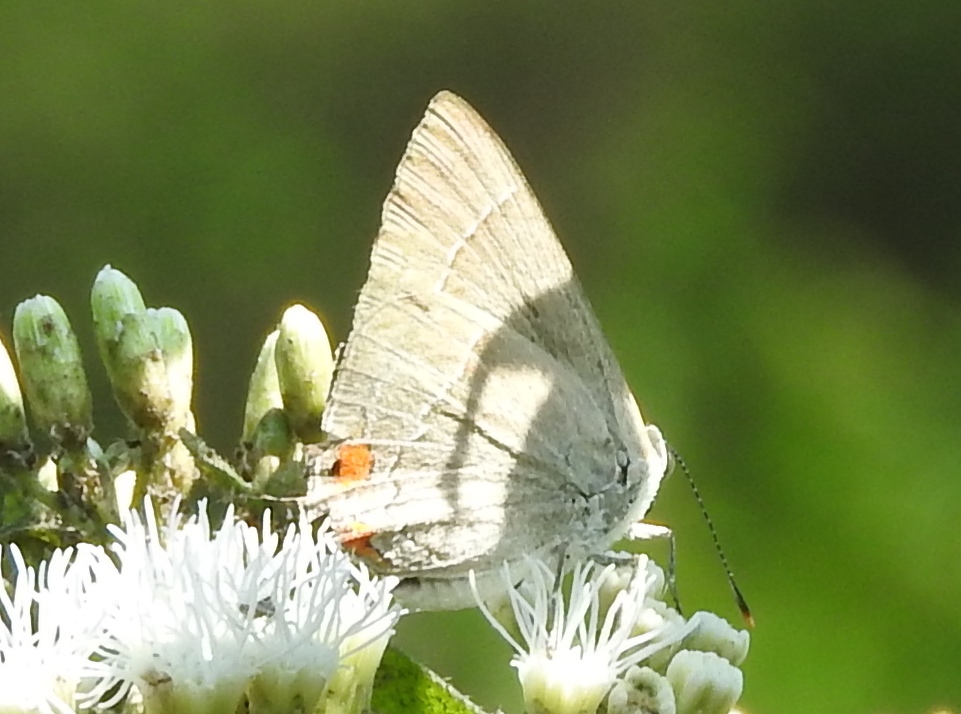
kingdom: Animalia
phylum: Arthropoda
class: Insecta
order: Lepidoptera
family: Lycaenidae
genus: Rekoa
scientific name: Rekoa
